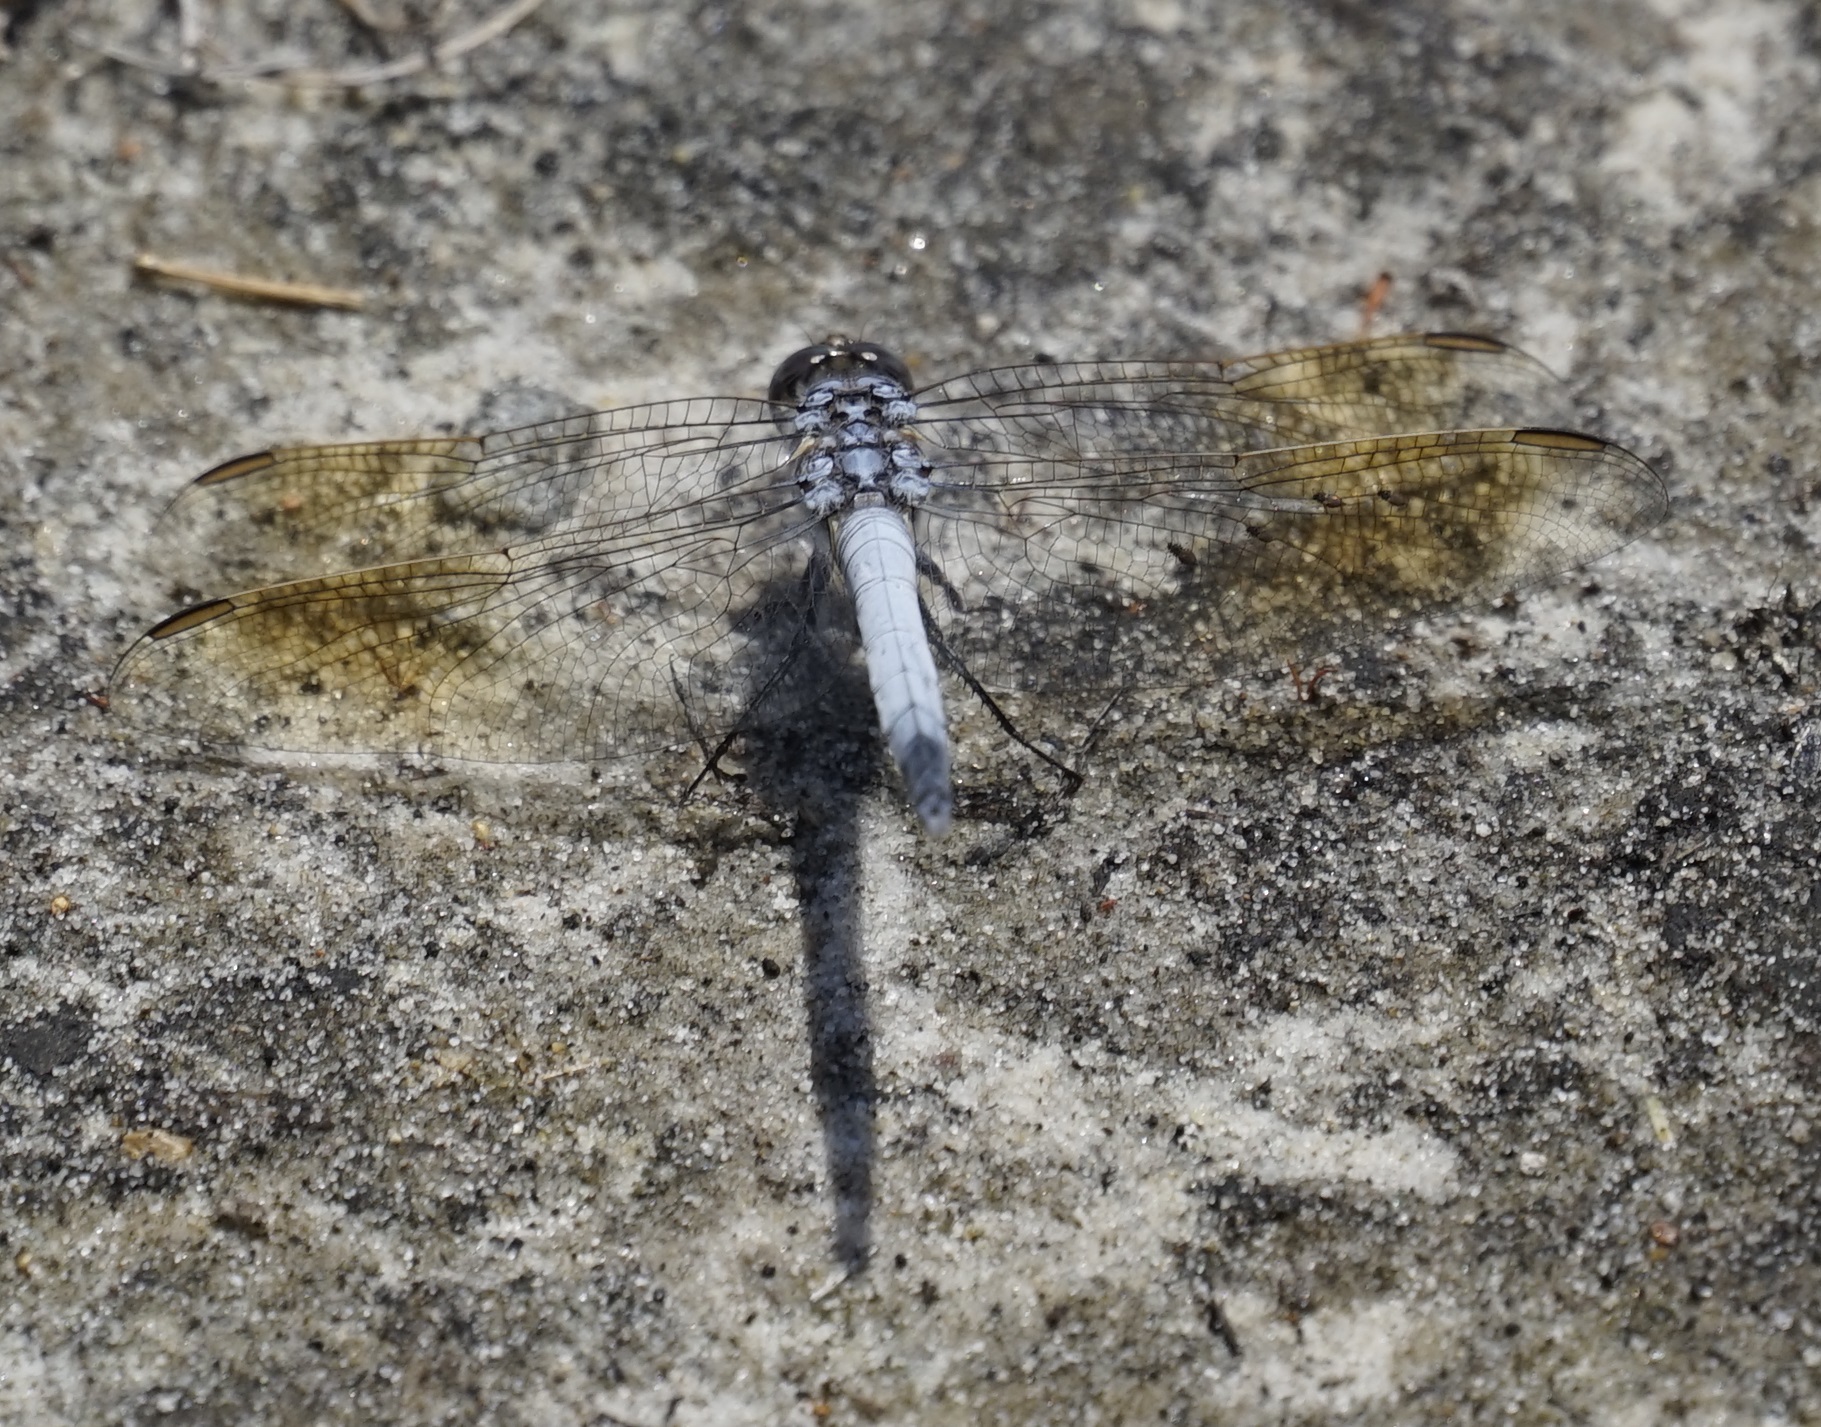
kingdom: Animalia
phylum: Arthropoda
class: Insecta
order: Odonata
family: Libellulidae
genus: Orthetrum
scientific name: Orthetrum caledonicum
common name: Blue skimmer
